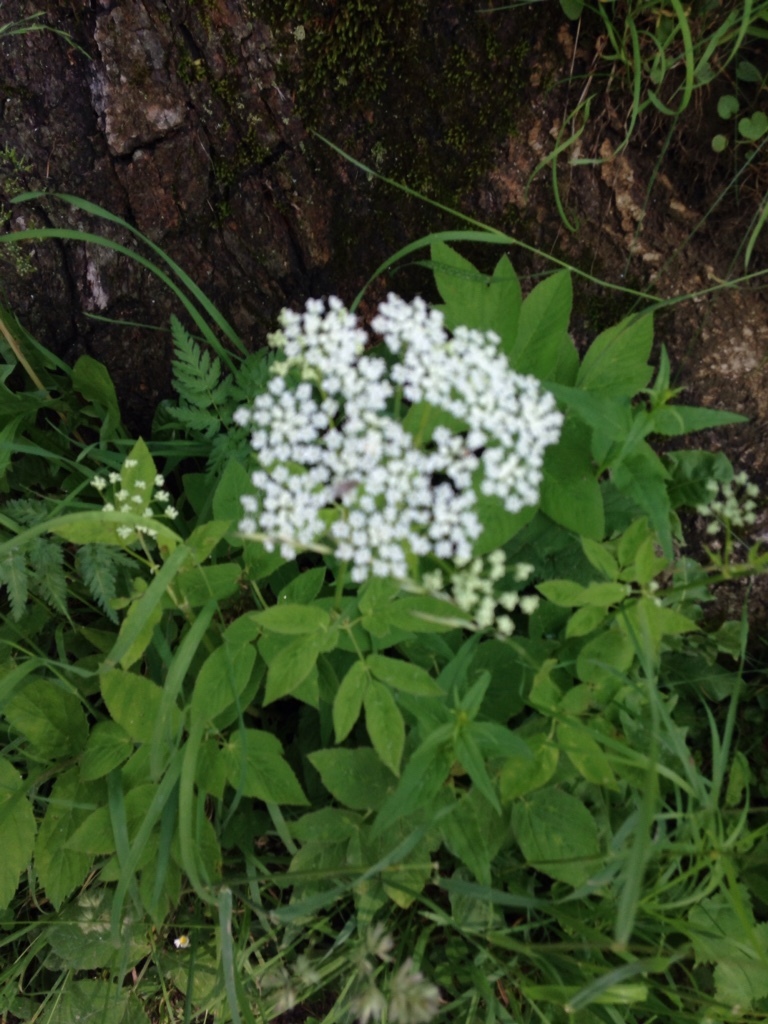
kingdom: Plantae
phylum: Tracheophyta
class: Magnoliopsida
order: Dipsacales
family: Viburnaceae
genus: Sambucus
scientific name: Sambucus nigra
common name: Elder
